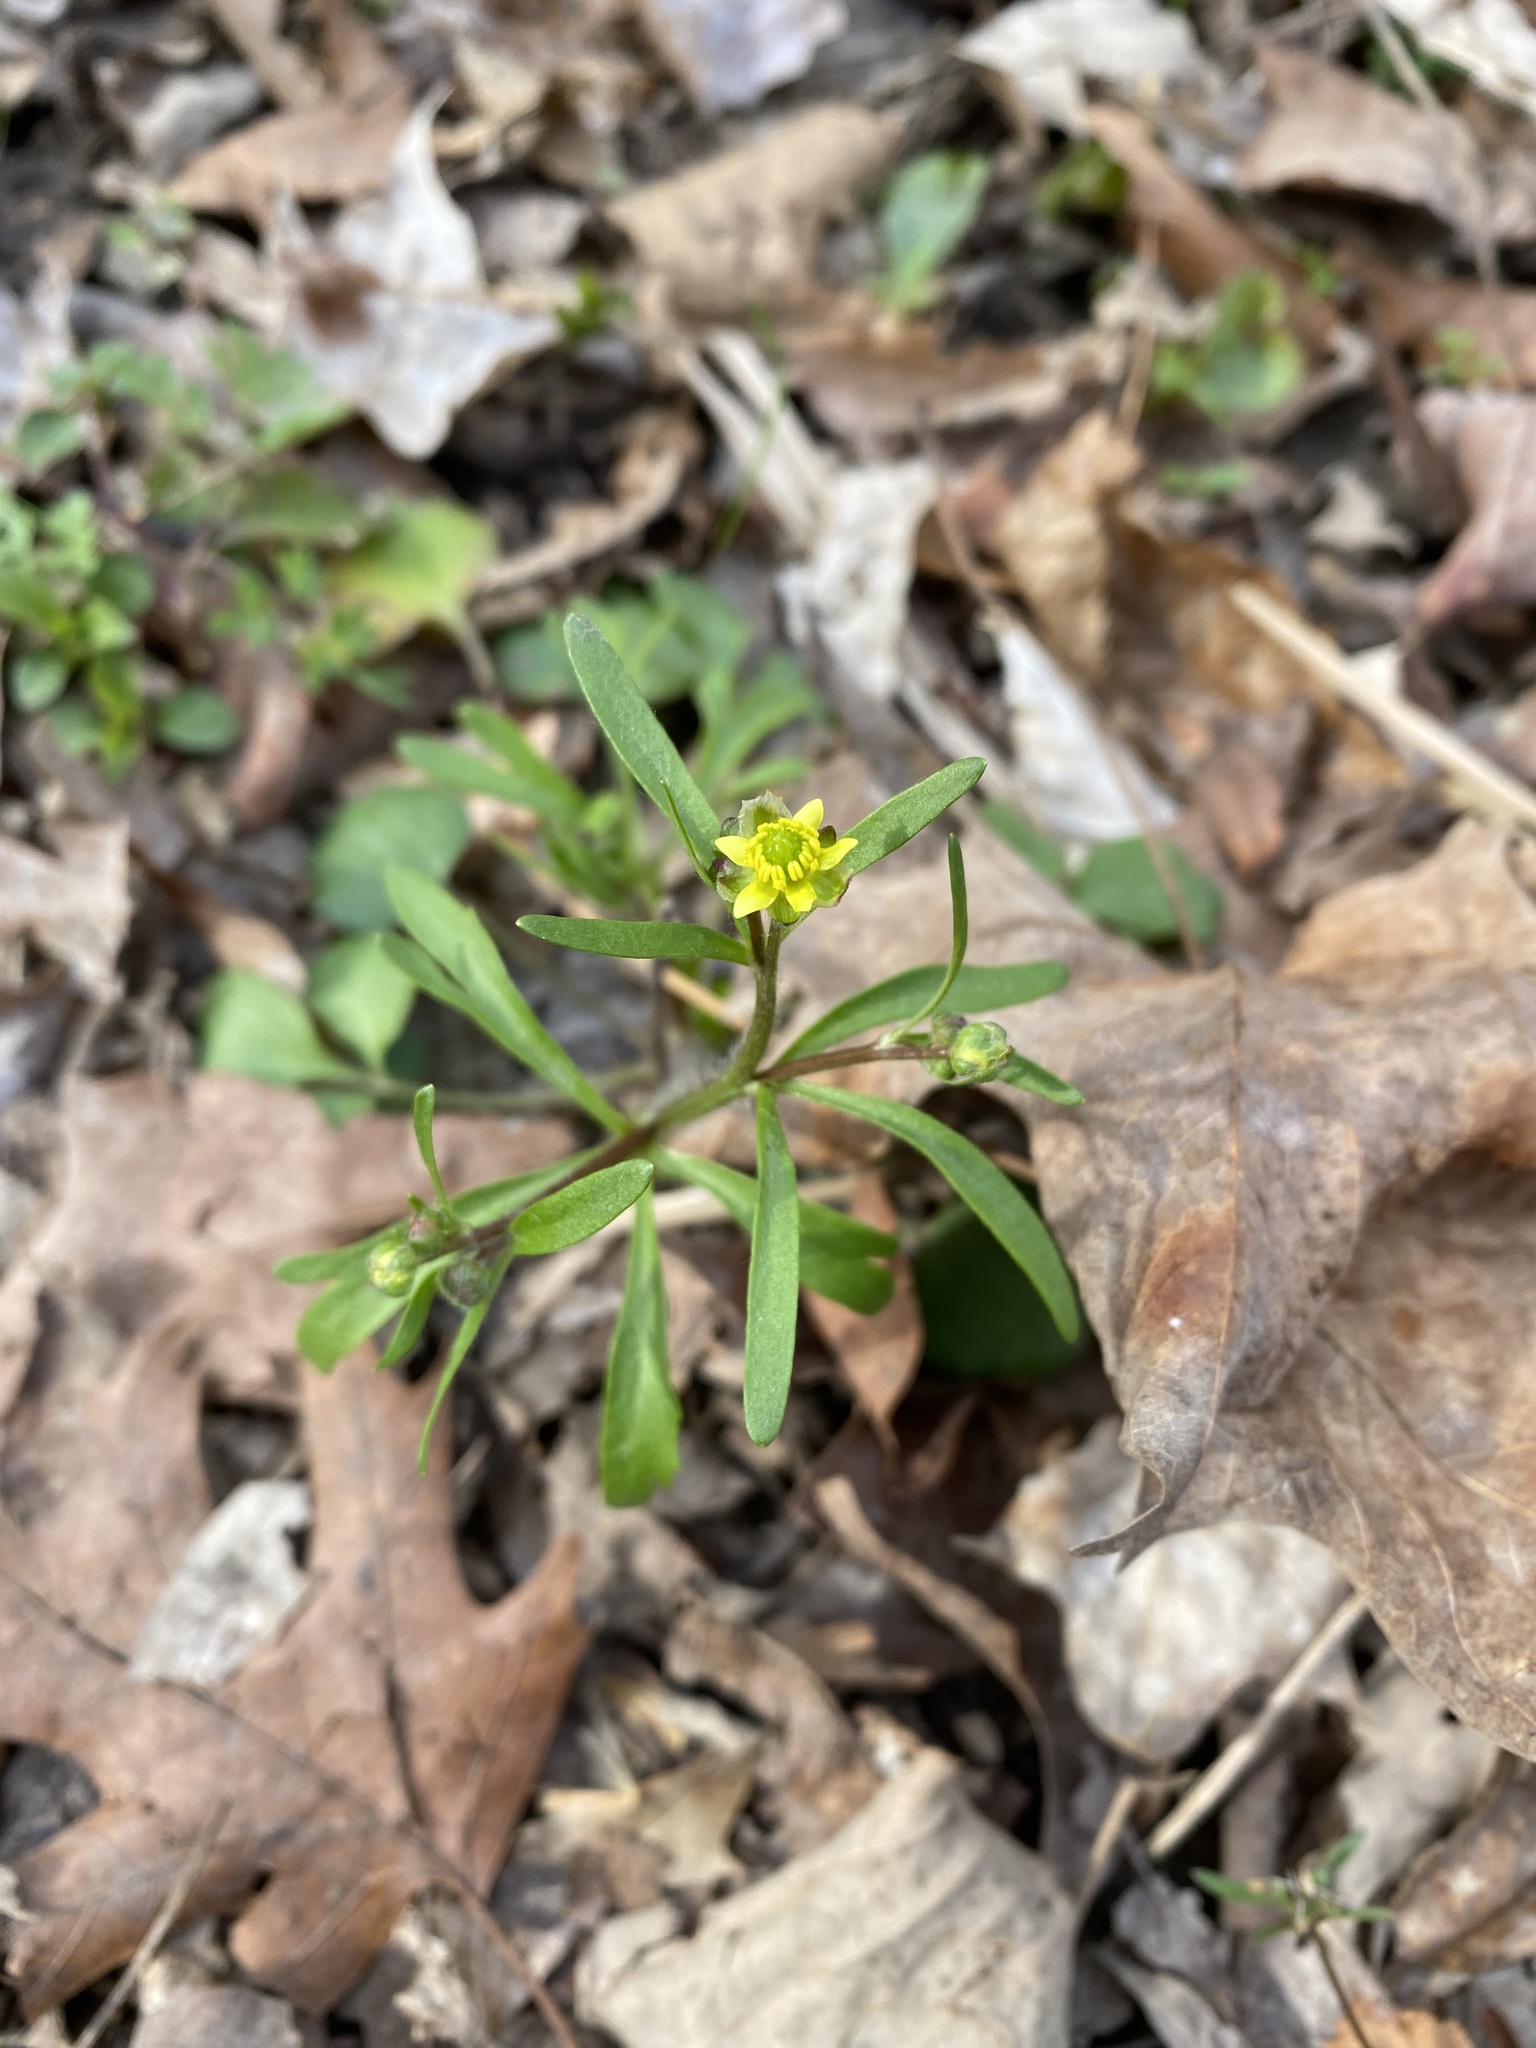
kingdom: Plantae
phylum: Tracheophyta
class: Magnoliopsida
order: Ranunculales
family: Ranunculaceae
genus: Ranunculus
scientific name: Ranunculus micranthus
